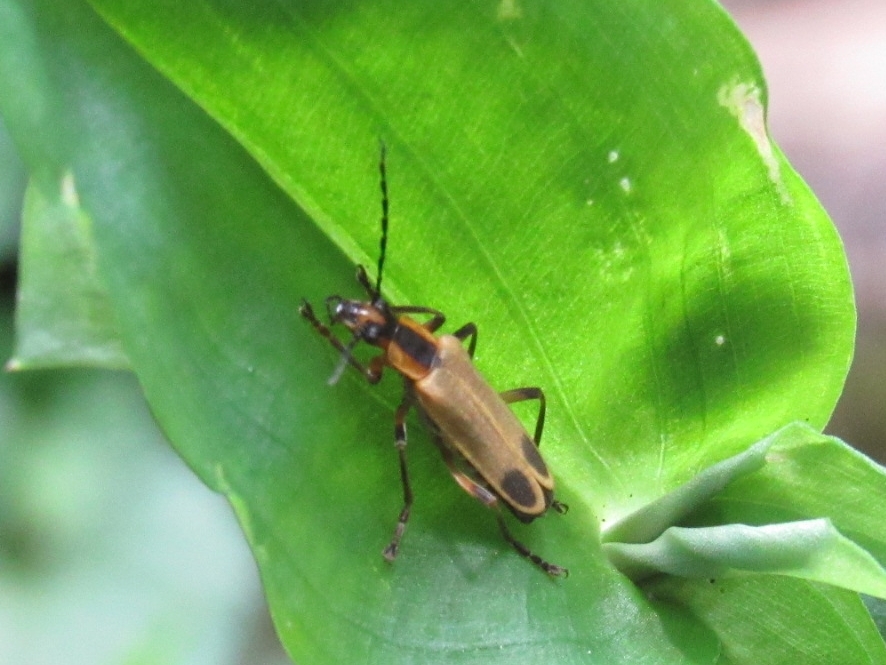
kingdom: Animalia
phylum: Arthropoda
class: Insecta
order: Coleoptera
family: Cantharidae
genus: Chauliognathus
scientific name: Chauliognathus marginatus
